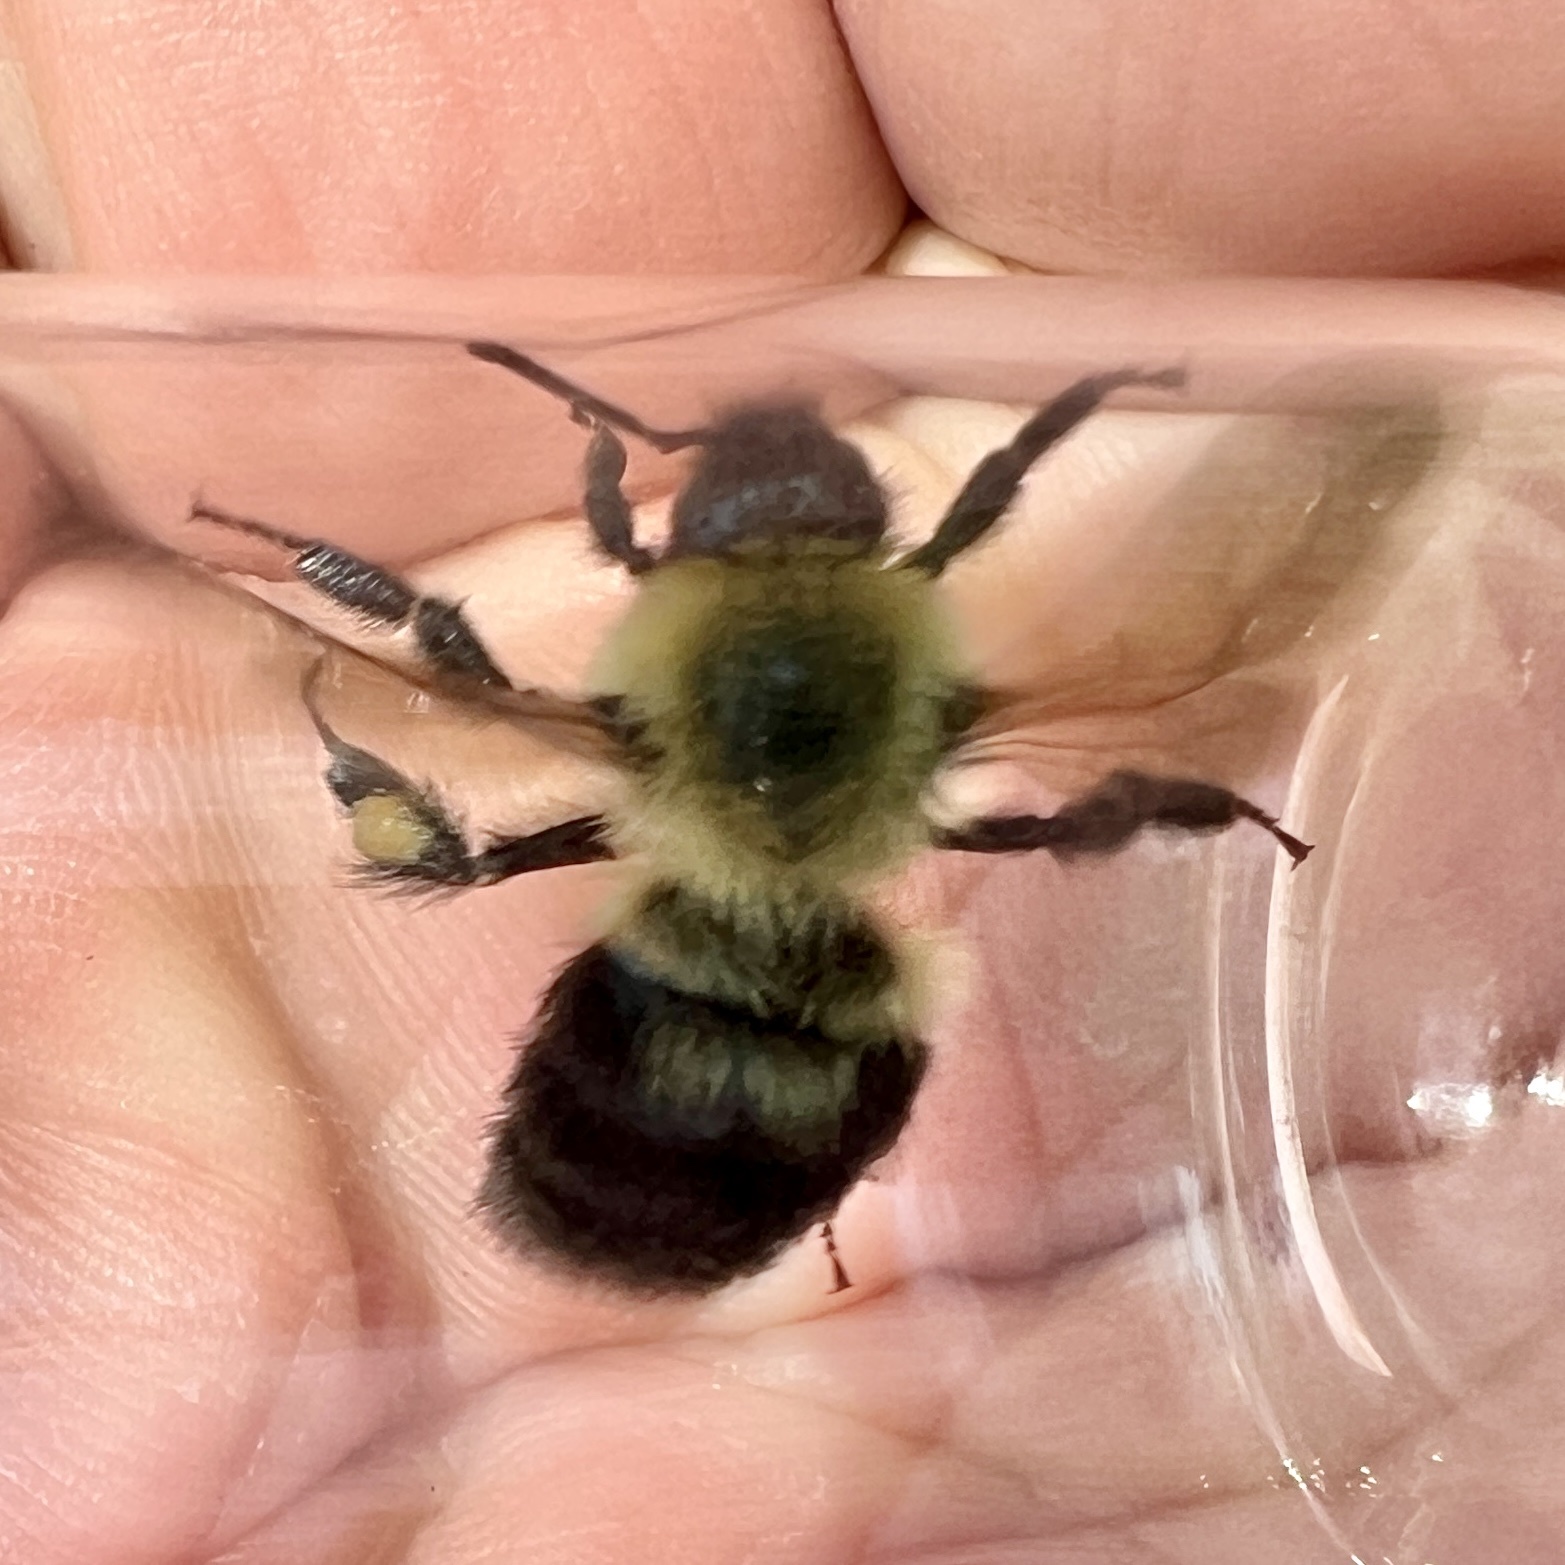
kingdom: Animalia
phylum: Arthropoda
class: Insecta
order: Hymenoptera
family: Apidae
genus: Bombus
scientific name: Bombus bimaculatus
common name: Two-spotted bumble bee
